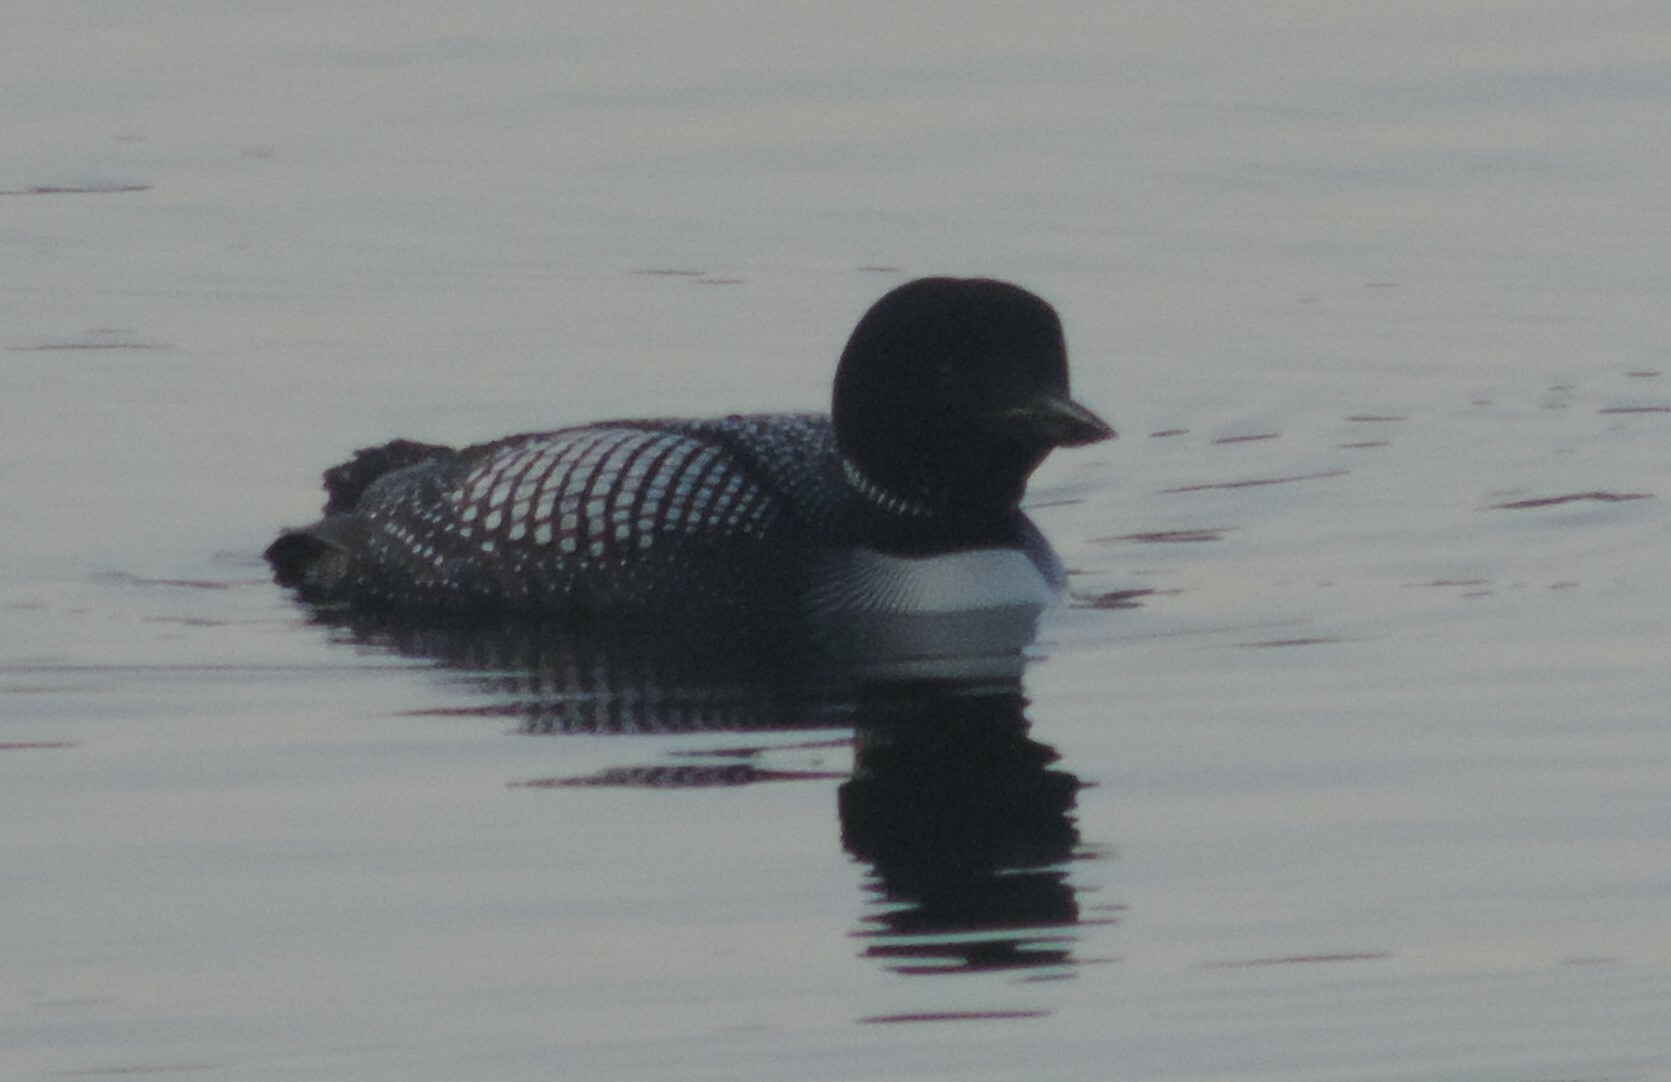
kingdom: Animalia
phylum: Chordata
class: Aves
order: Gaviiformes
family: Gaviidae
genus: Gavia
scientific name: Gavia immer
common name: Common loon
